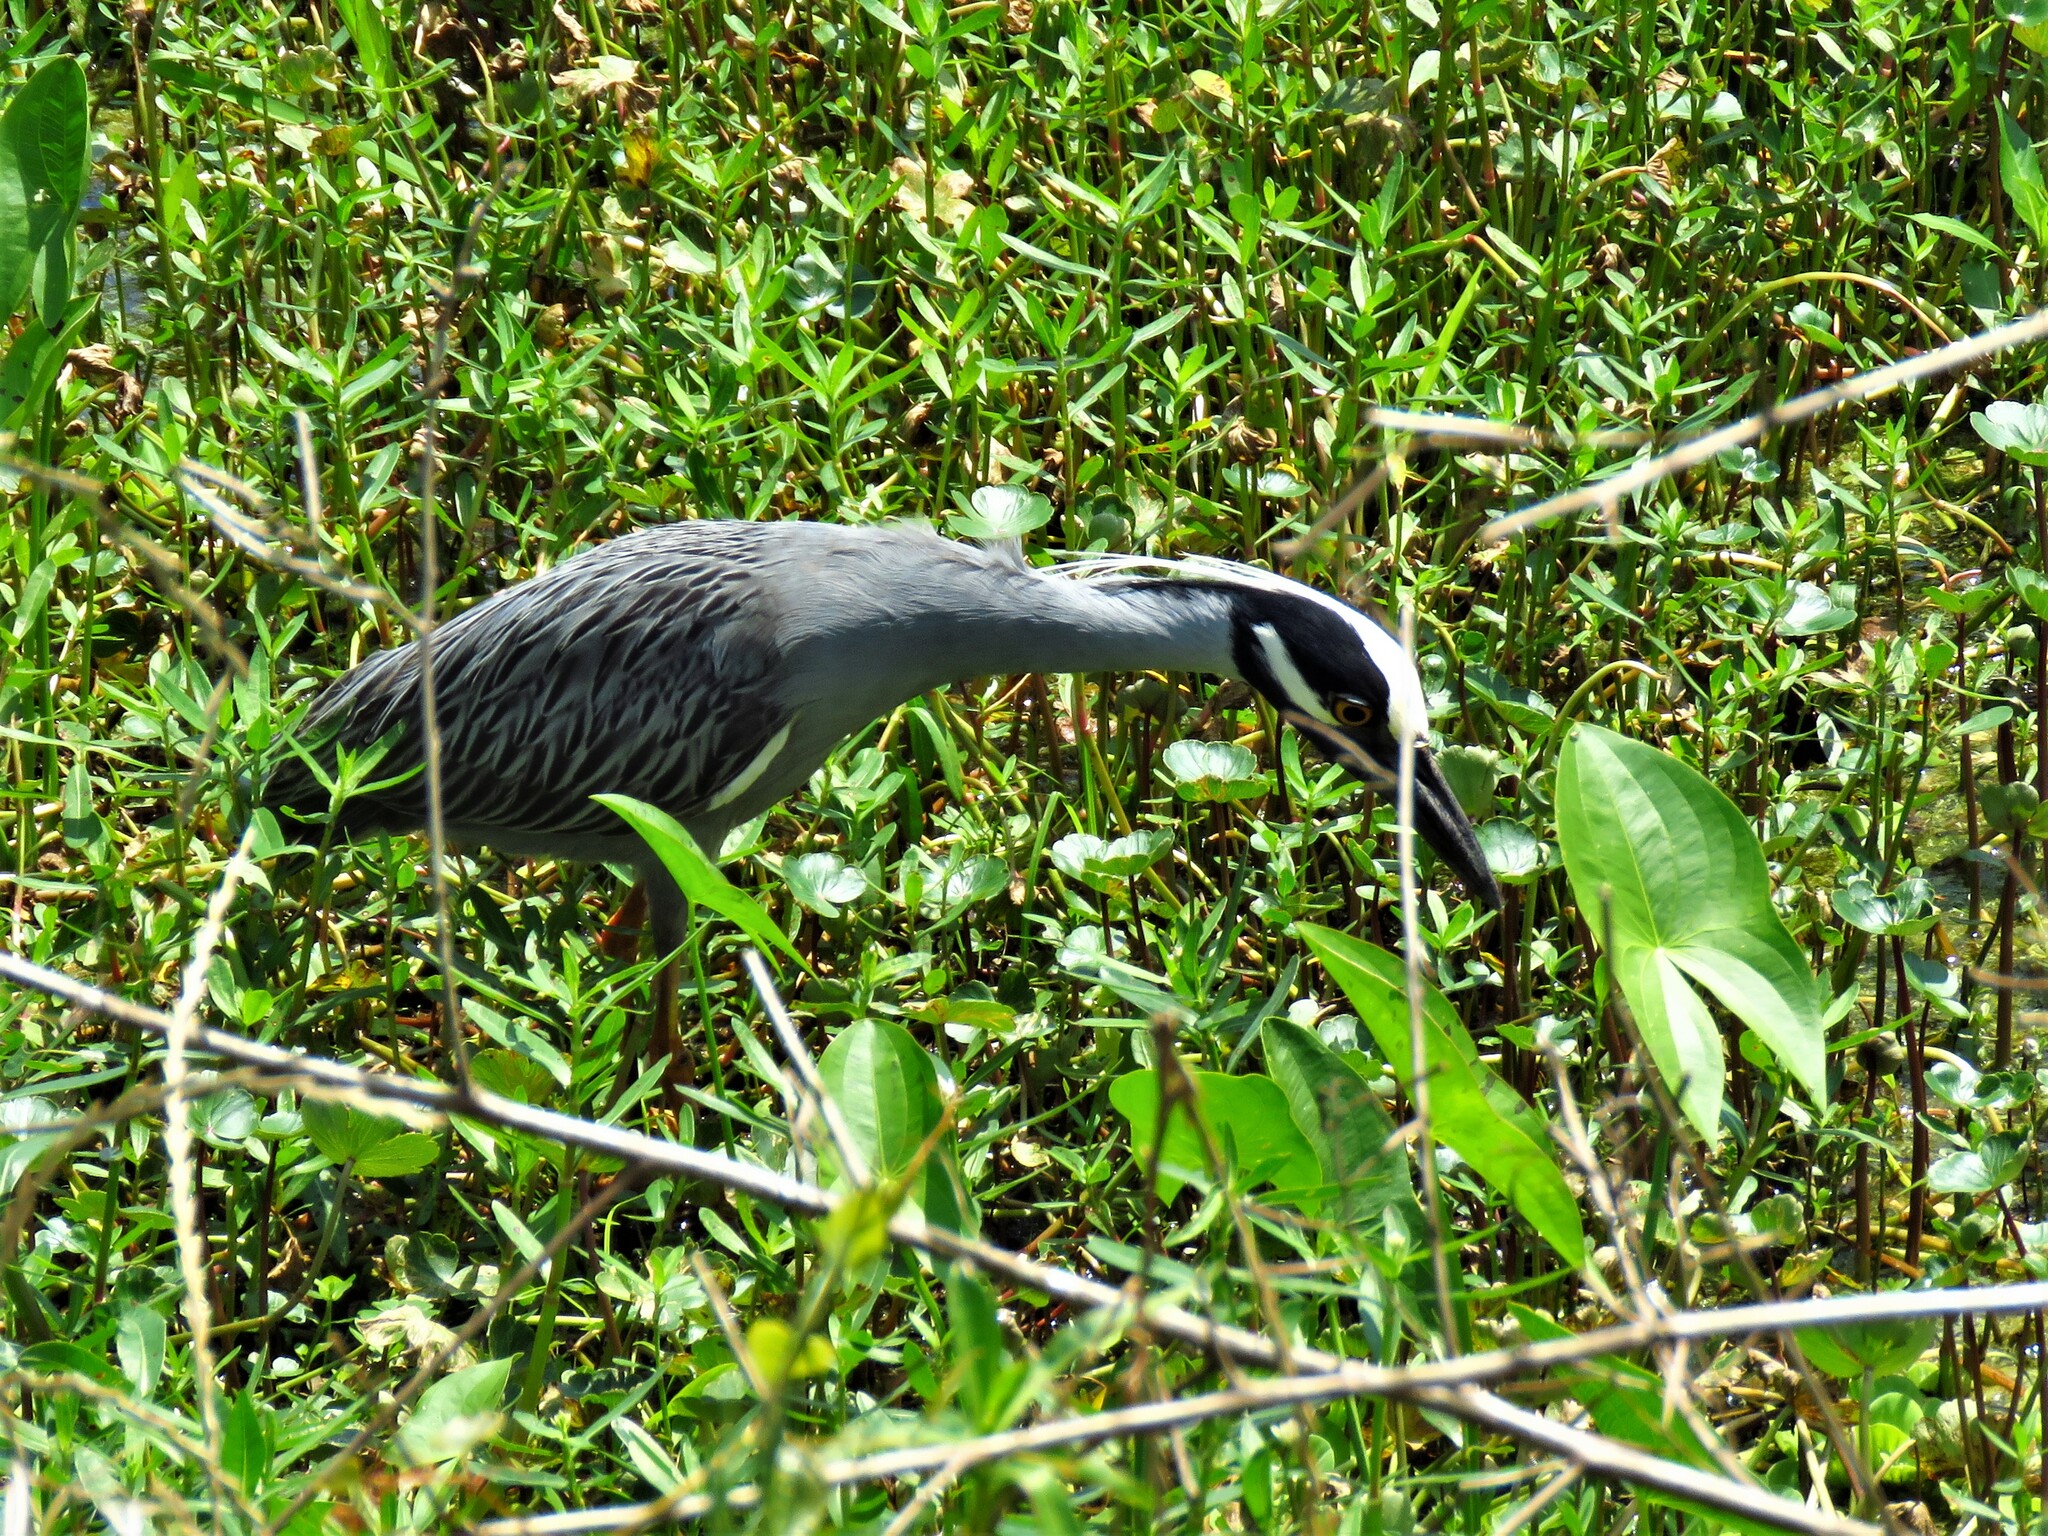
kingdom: Animalia
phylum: Chordata
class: Aves
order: Pelecaniformes
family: Ardeidae
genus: Nyctanassa
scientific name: Nyctanassa violacea
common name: Yellow-crowned night heron
